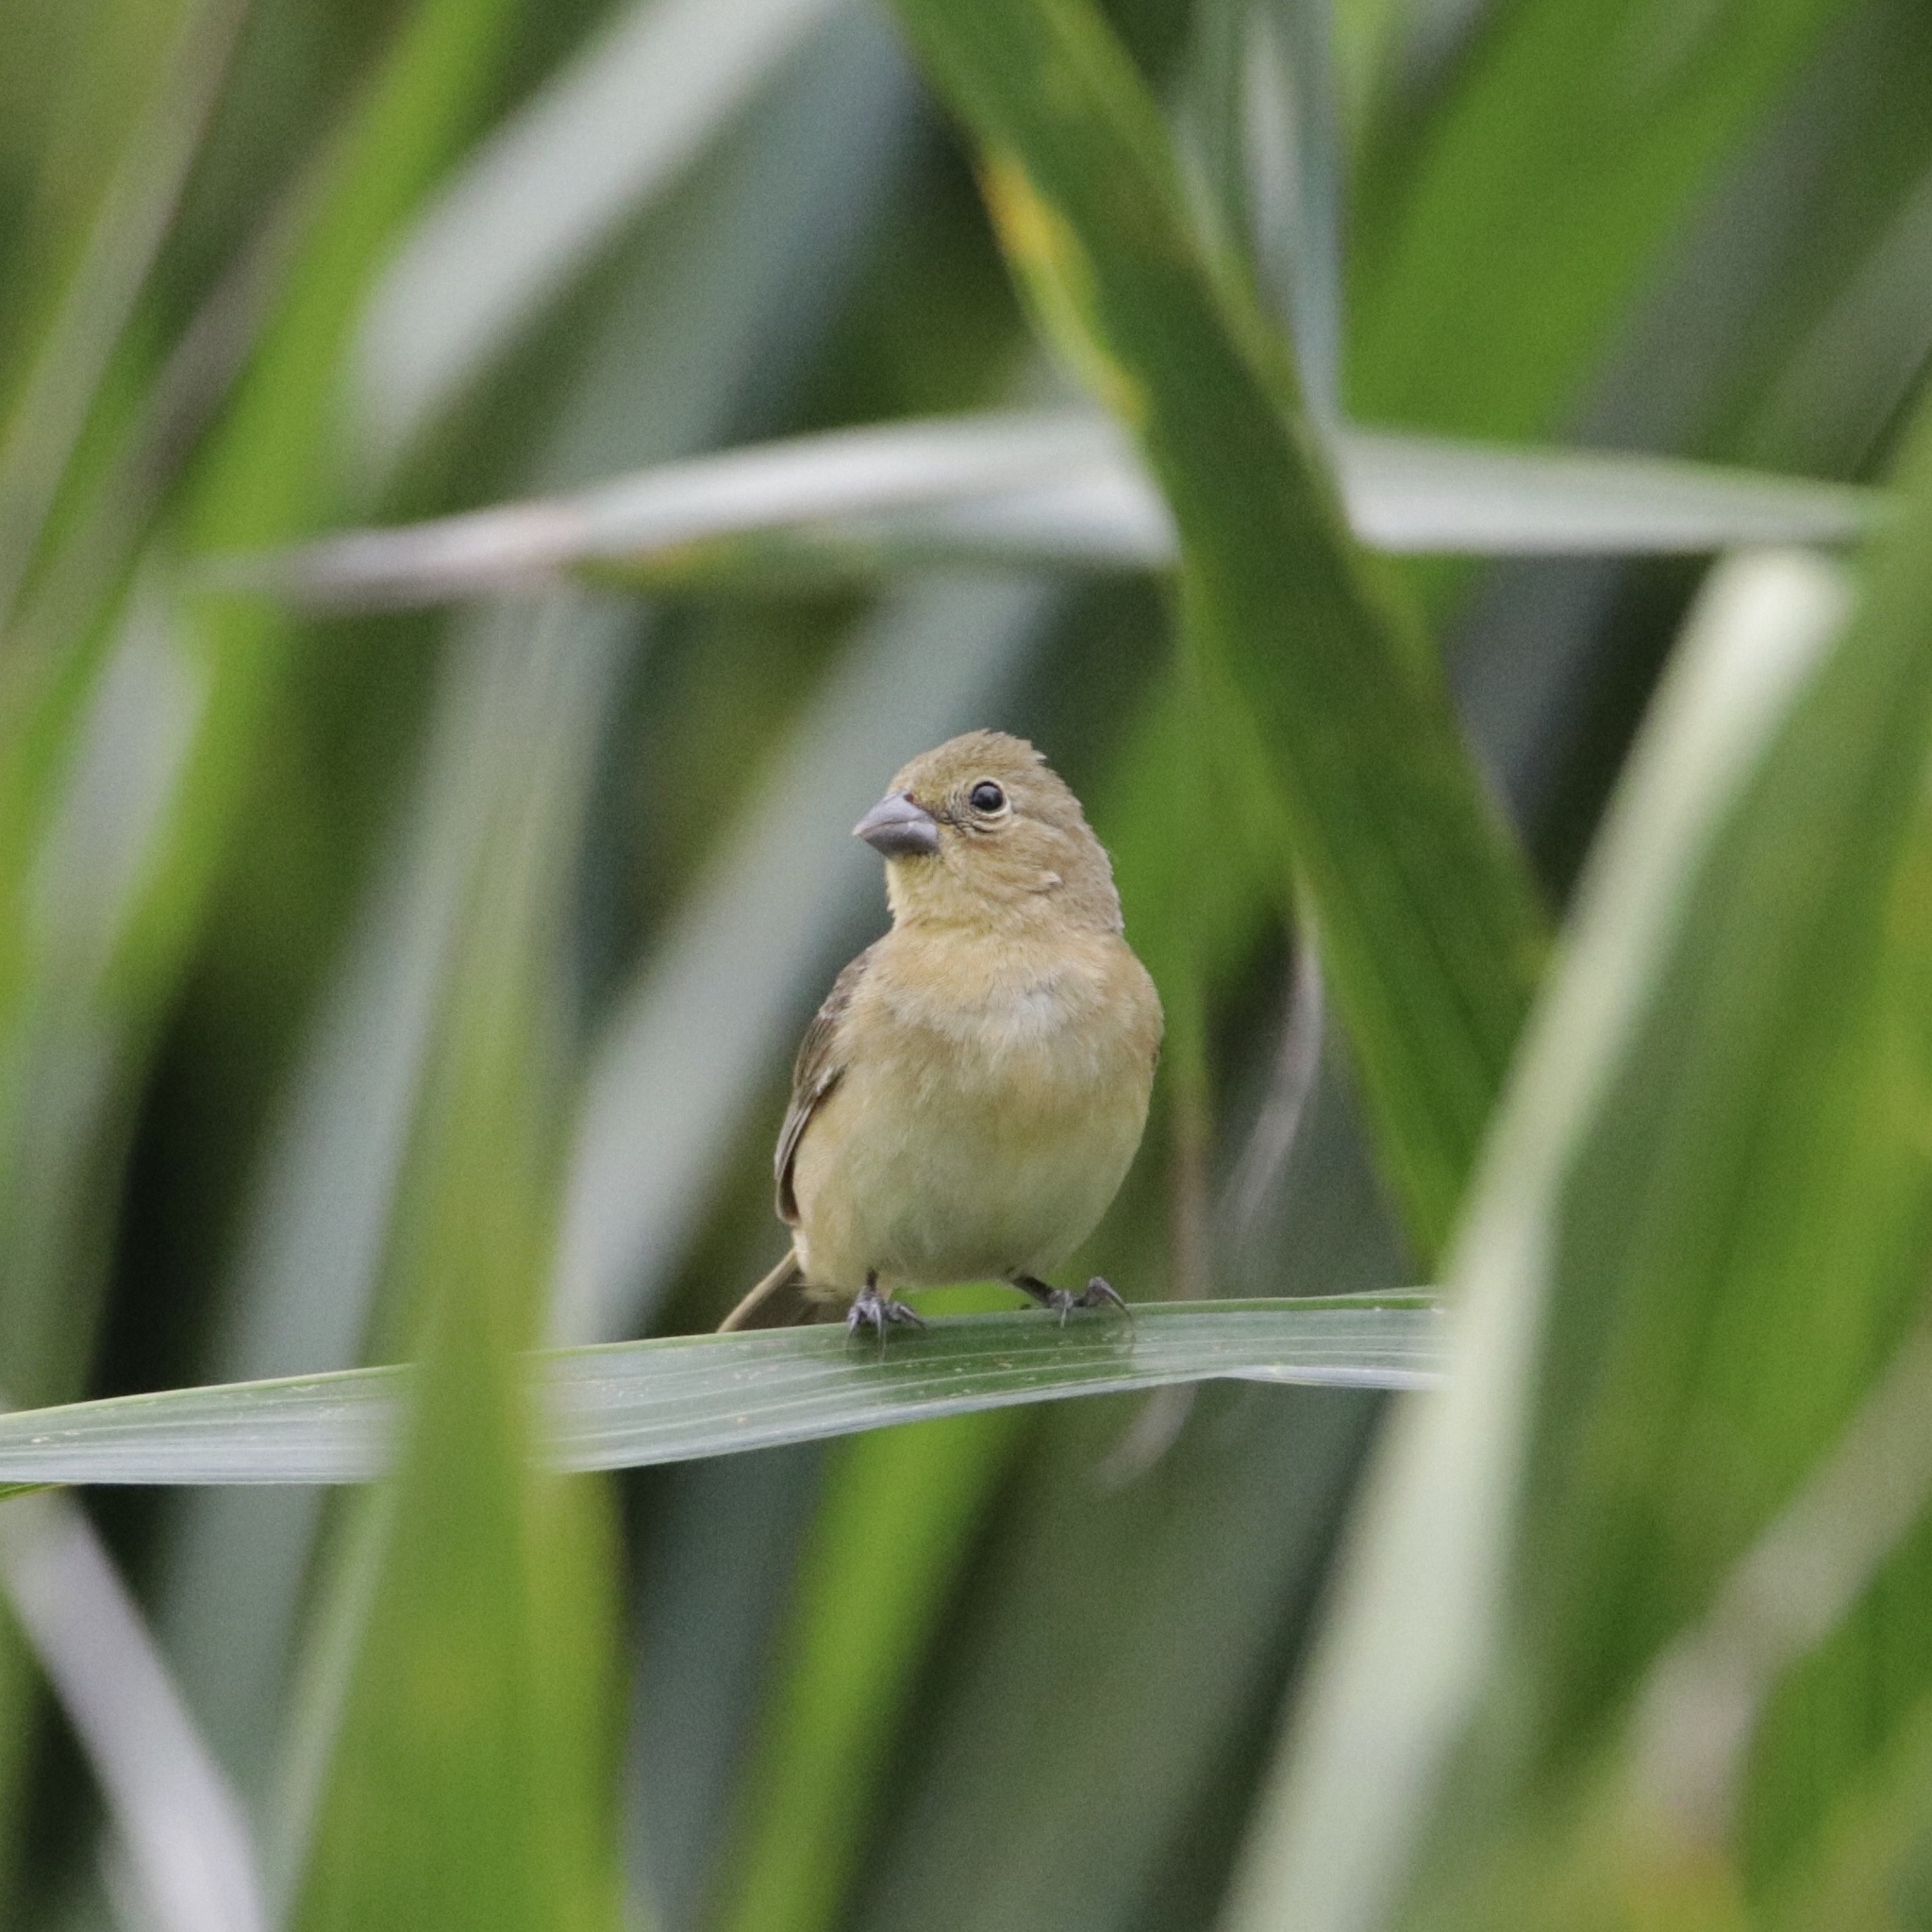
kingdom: Animalia
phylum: Chordata
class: Aves
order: Passeriformes
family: Thraupidae
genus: Sporophila
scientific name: Sporophila nigricollis
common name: Yellow-bellied seedeater
